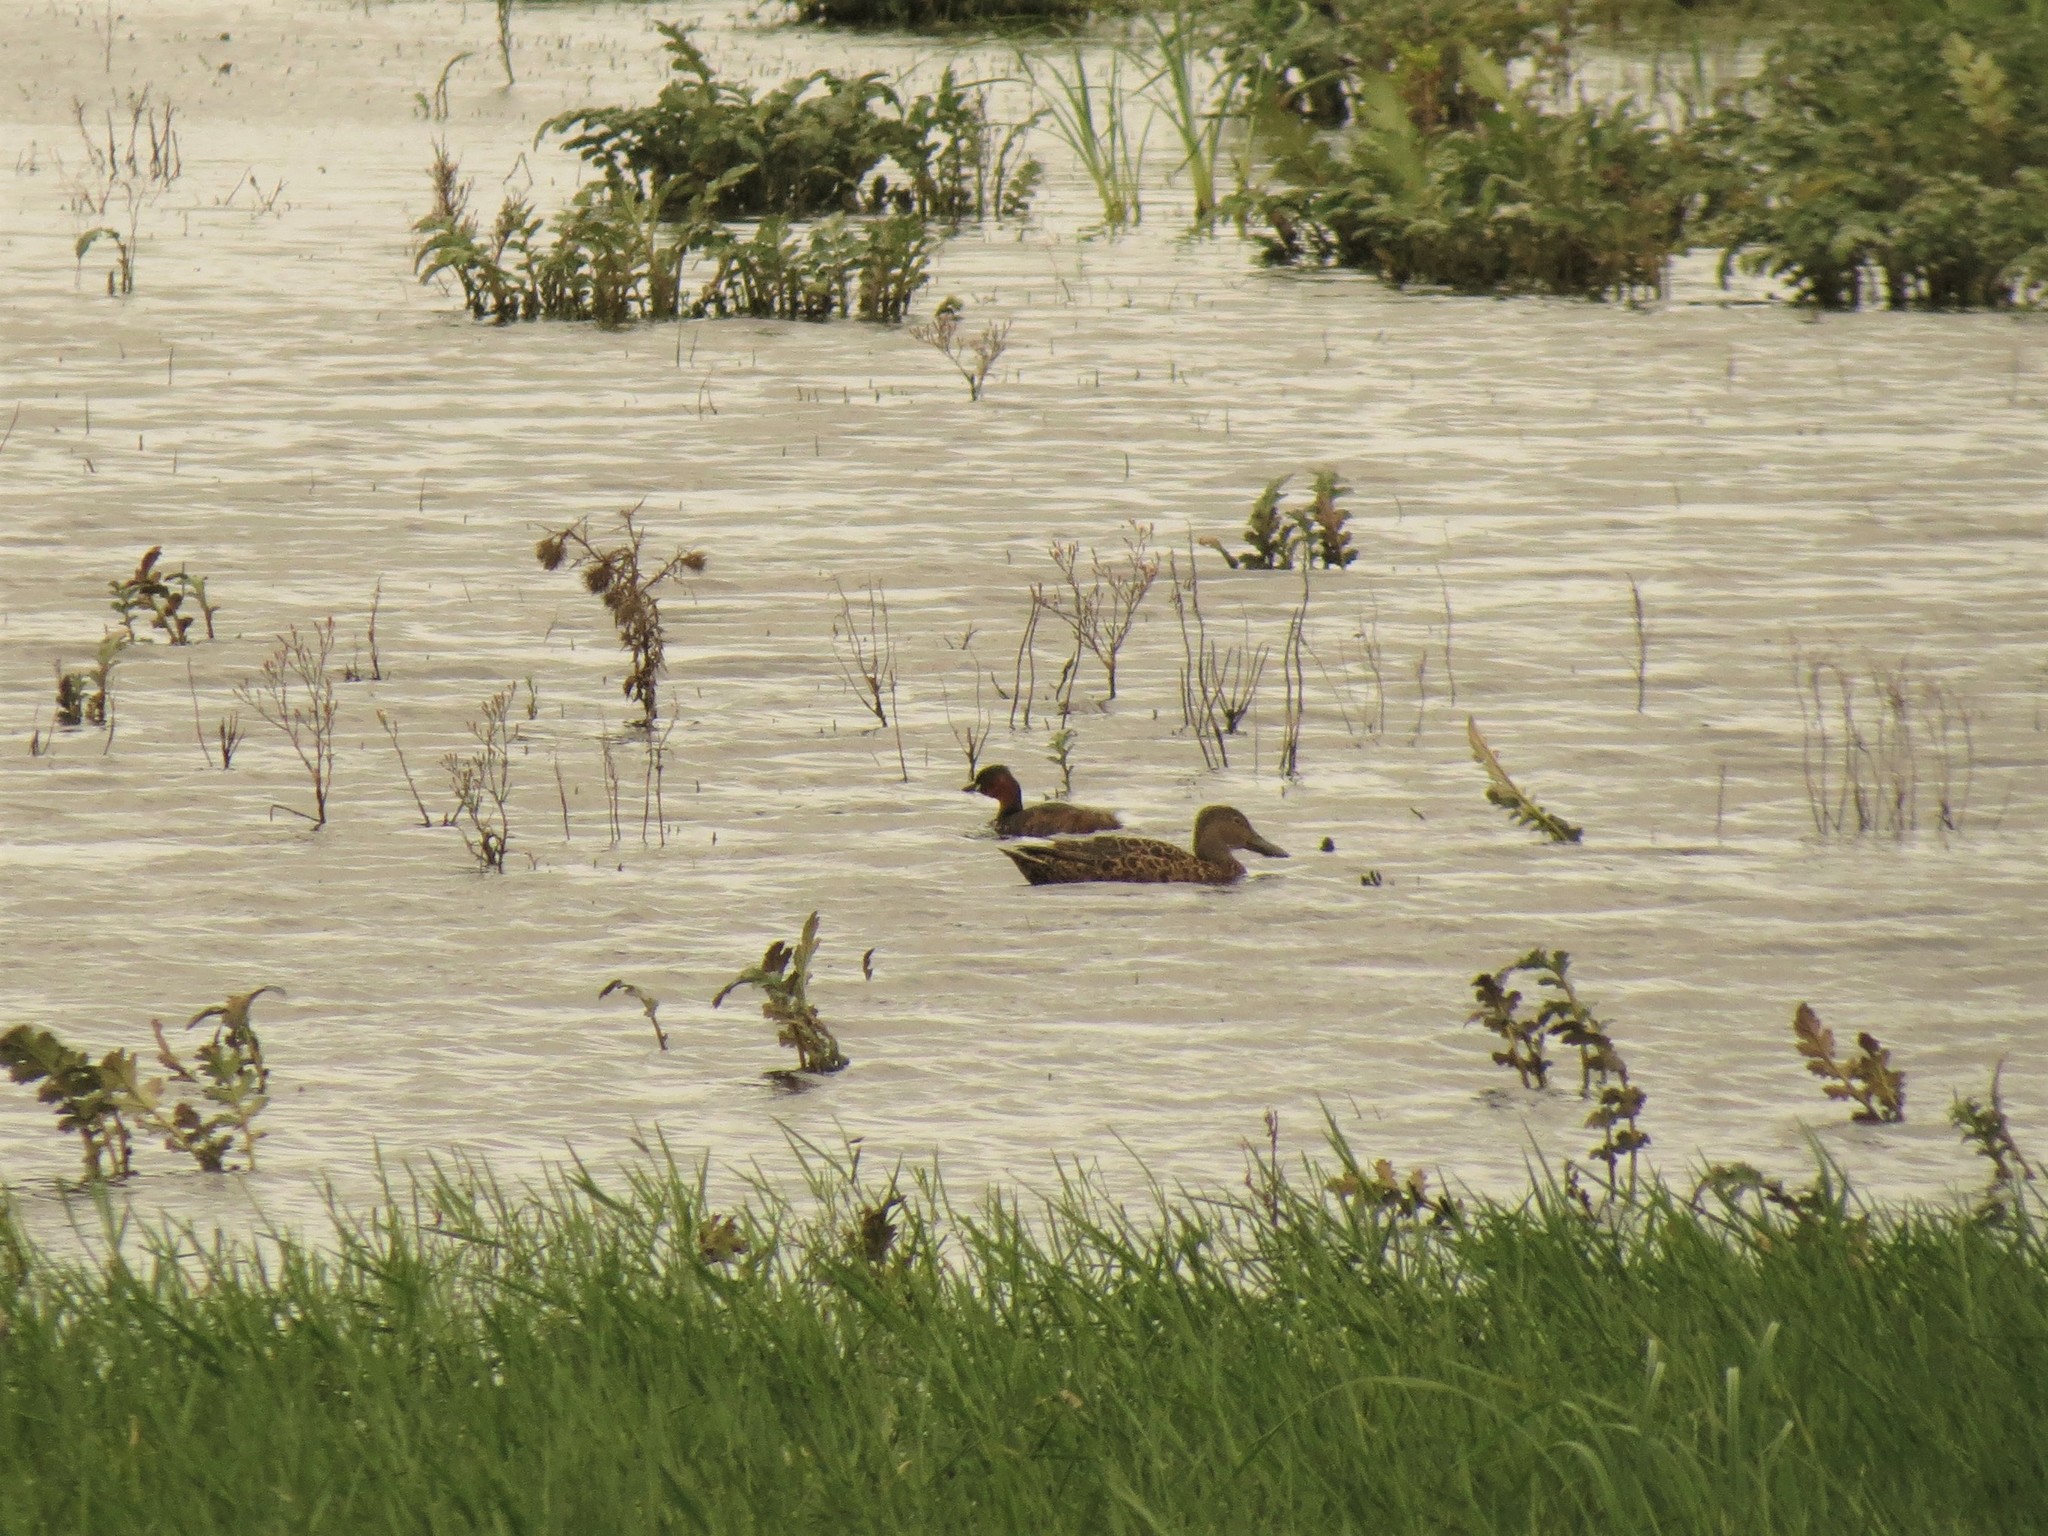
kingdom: Animalia
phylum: Chordata
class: Aves
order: Podicipediformes
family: Podicipedidae
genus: Tachybaptus
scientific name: Tachybaptus ruficollis
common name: Little grebe
